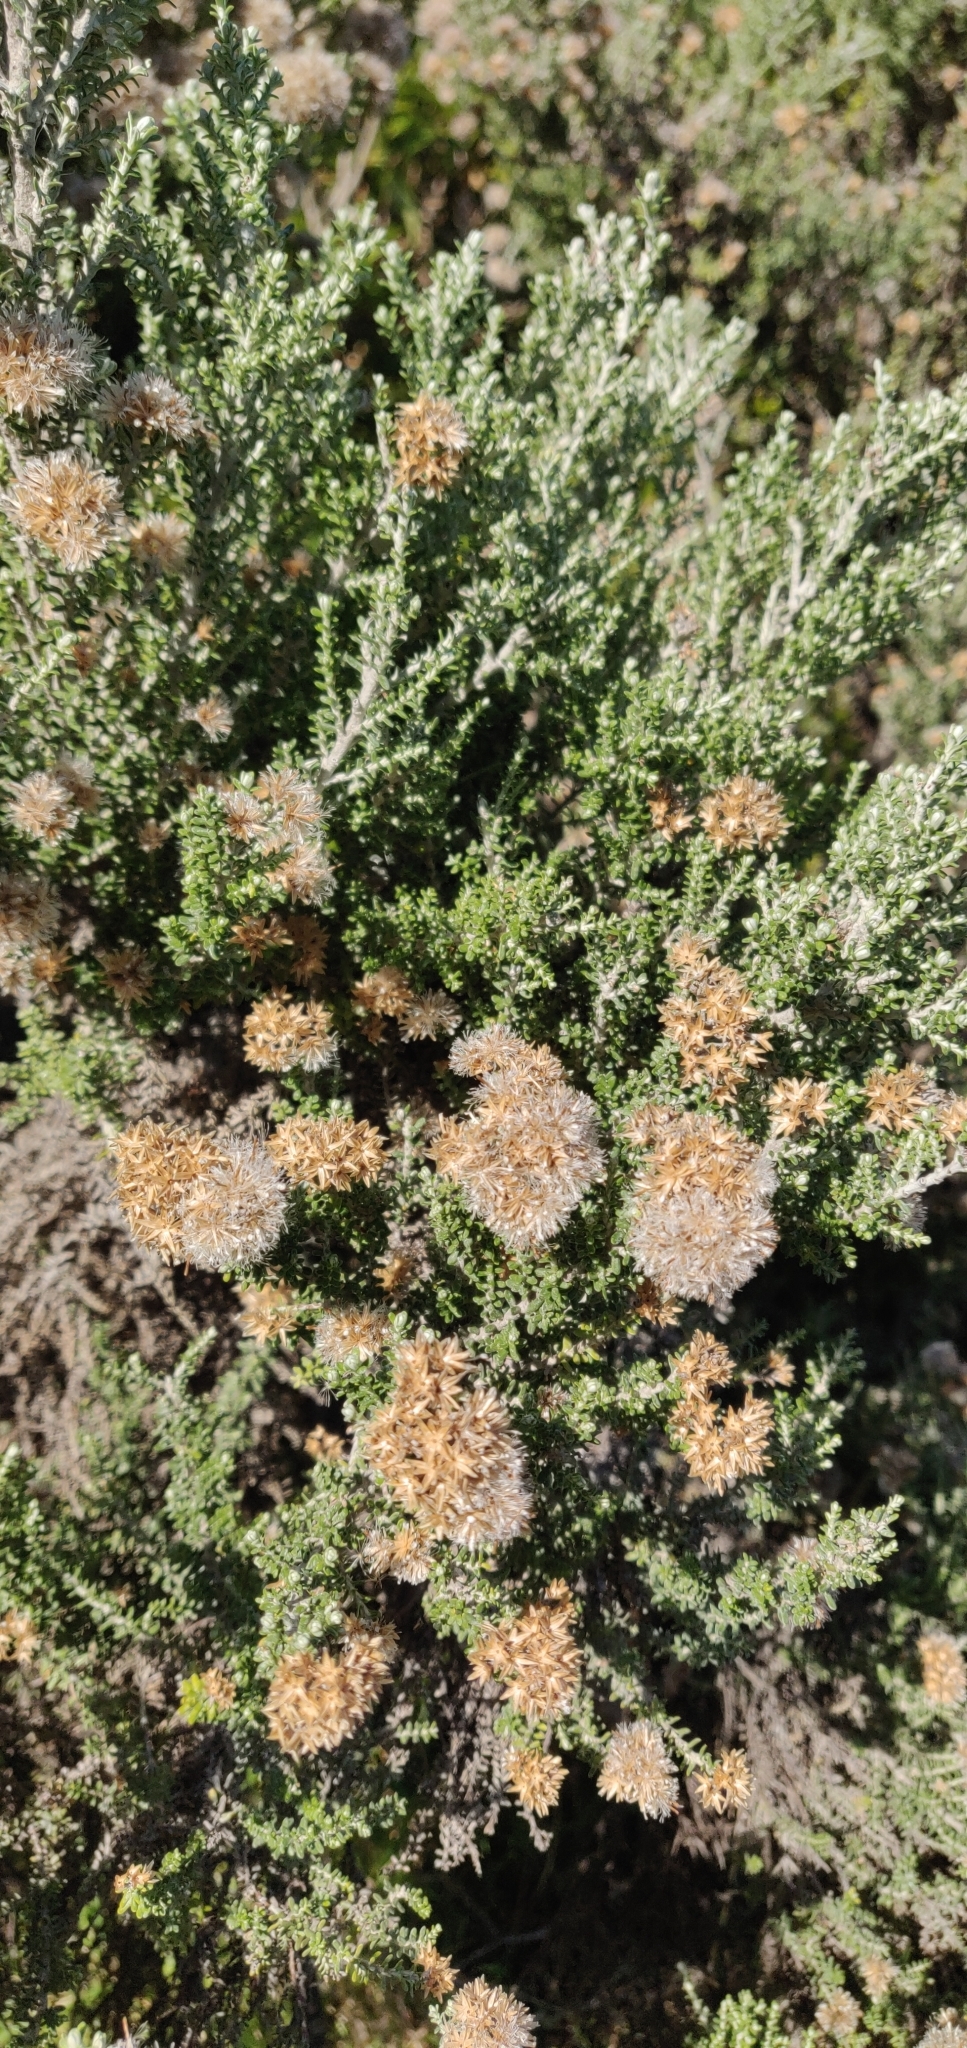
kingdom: Plantae
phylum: Tracheophyta
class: Magnoliopsida
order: Asterales
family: Asteraceae
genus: Ozothamnus
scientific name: Ozothamnus leptophyllus
